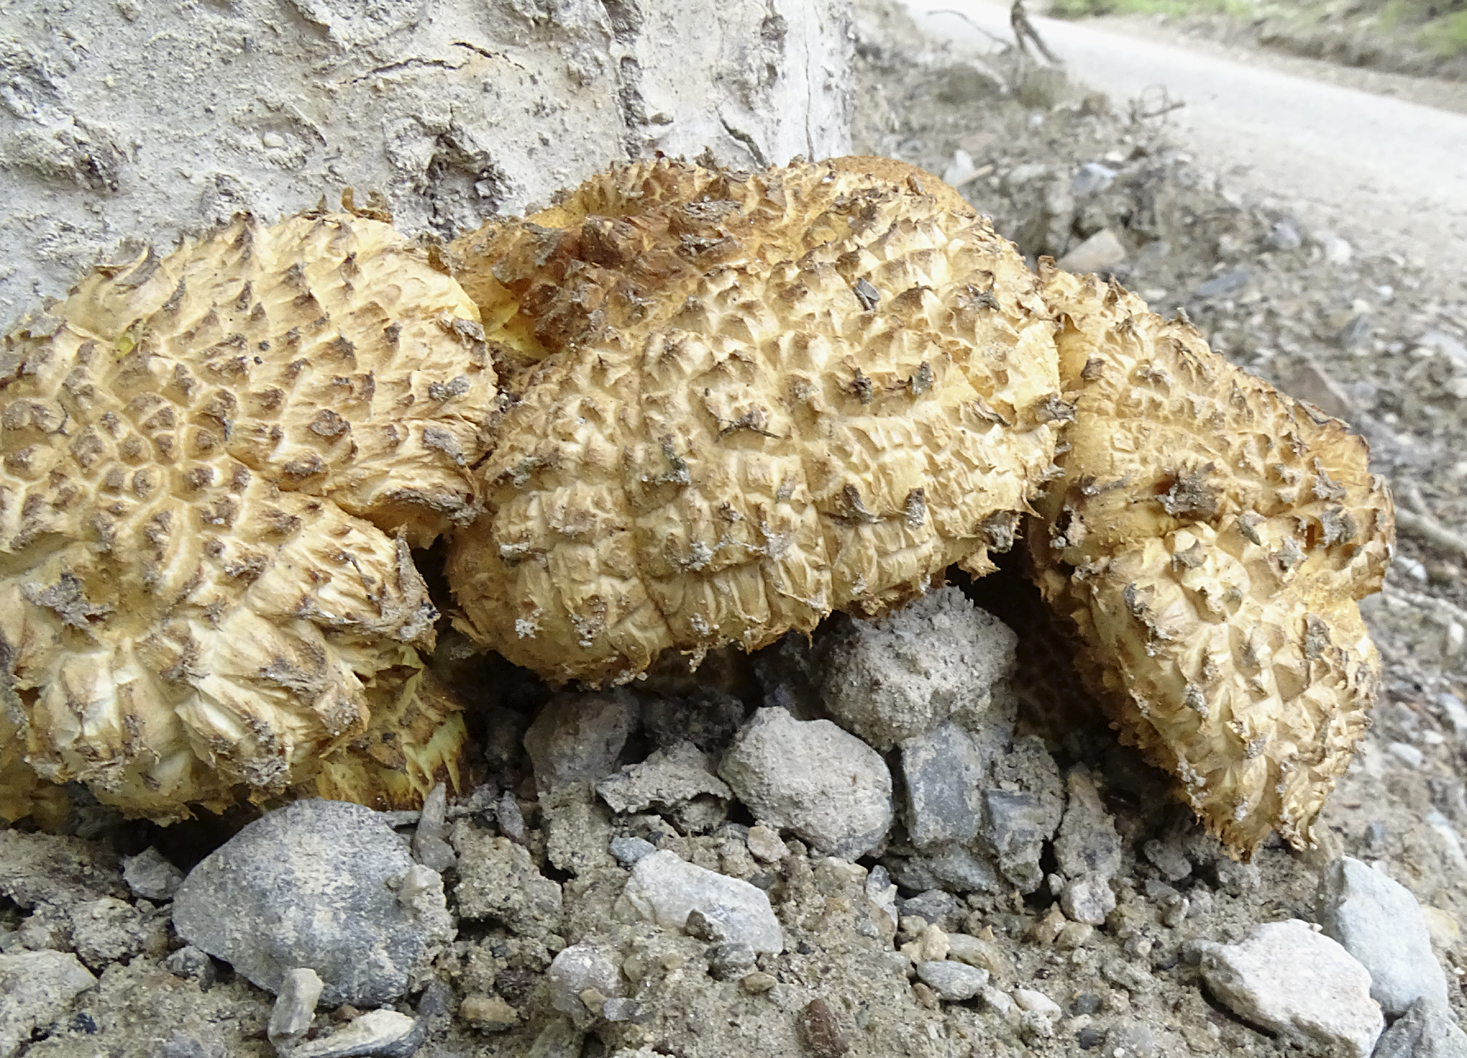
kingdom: Fungi
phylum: Basidiomycota
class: Agaricomycetes
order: Gloeophyllales
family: Gloeophyllaceae
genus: Neolentinus
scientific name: Neolentinus ponderosus
